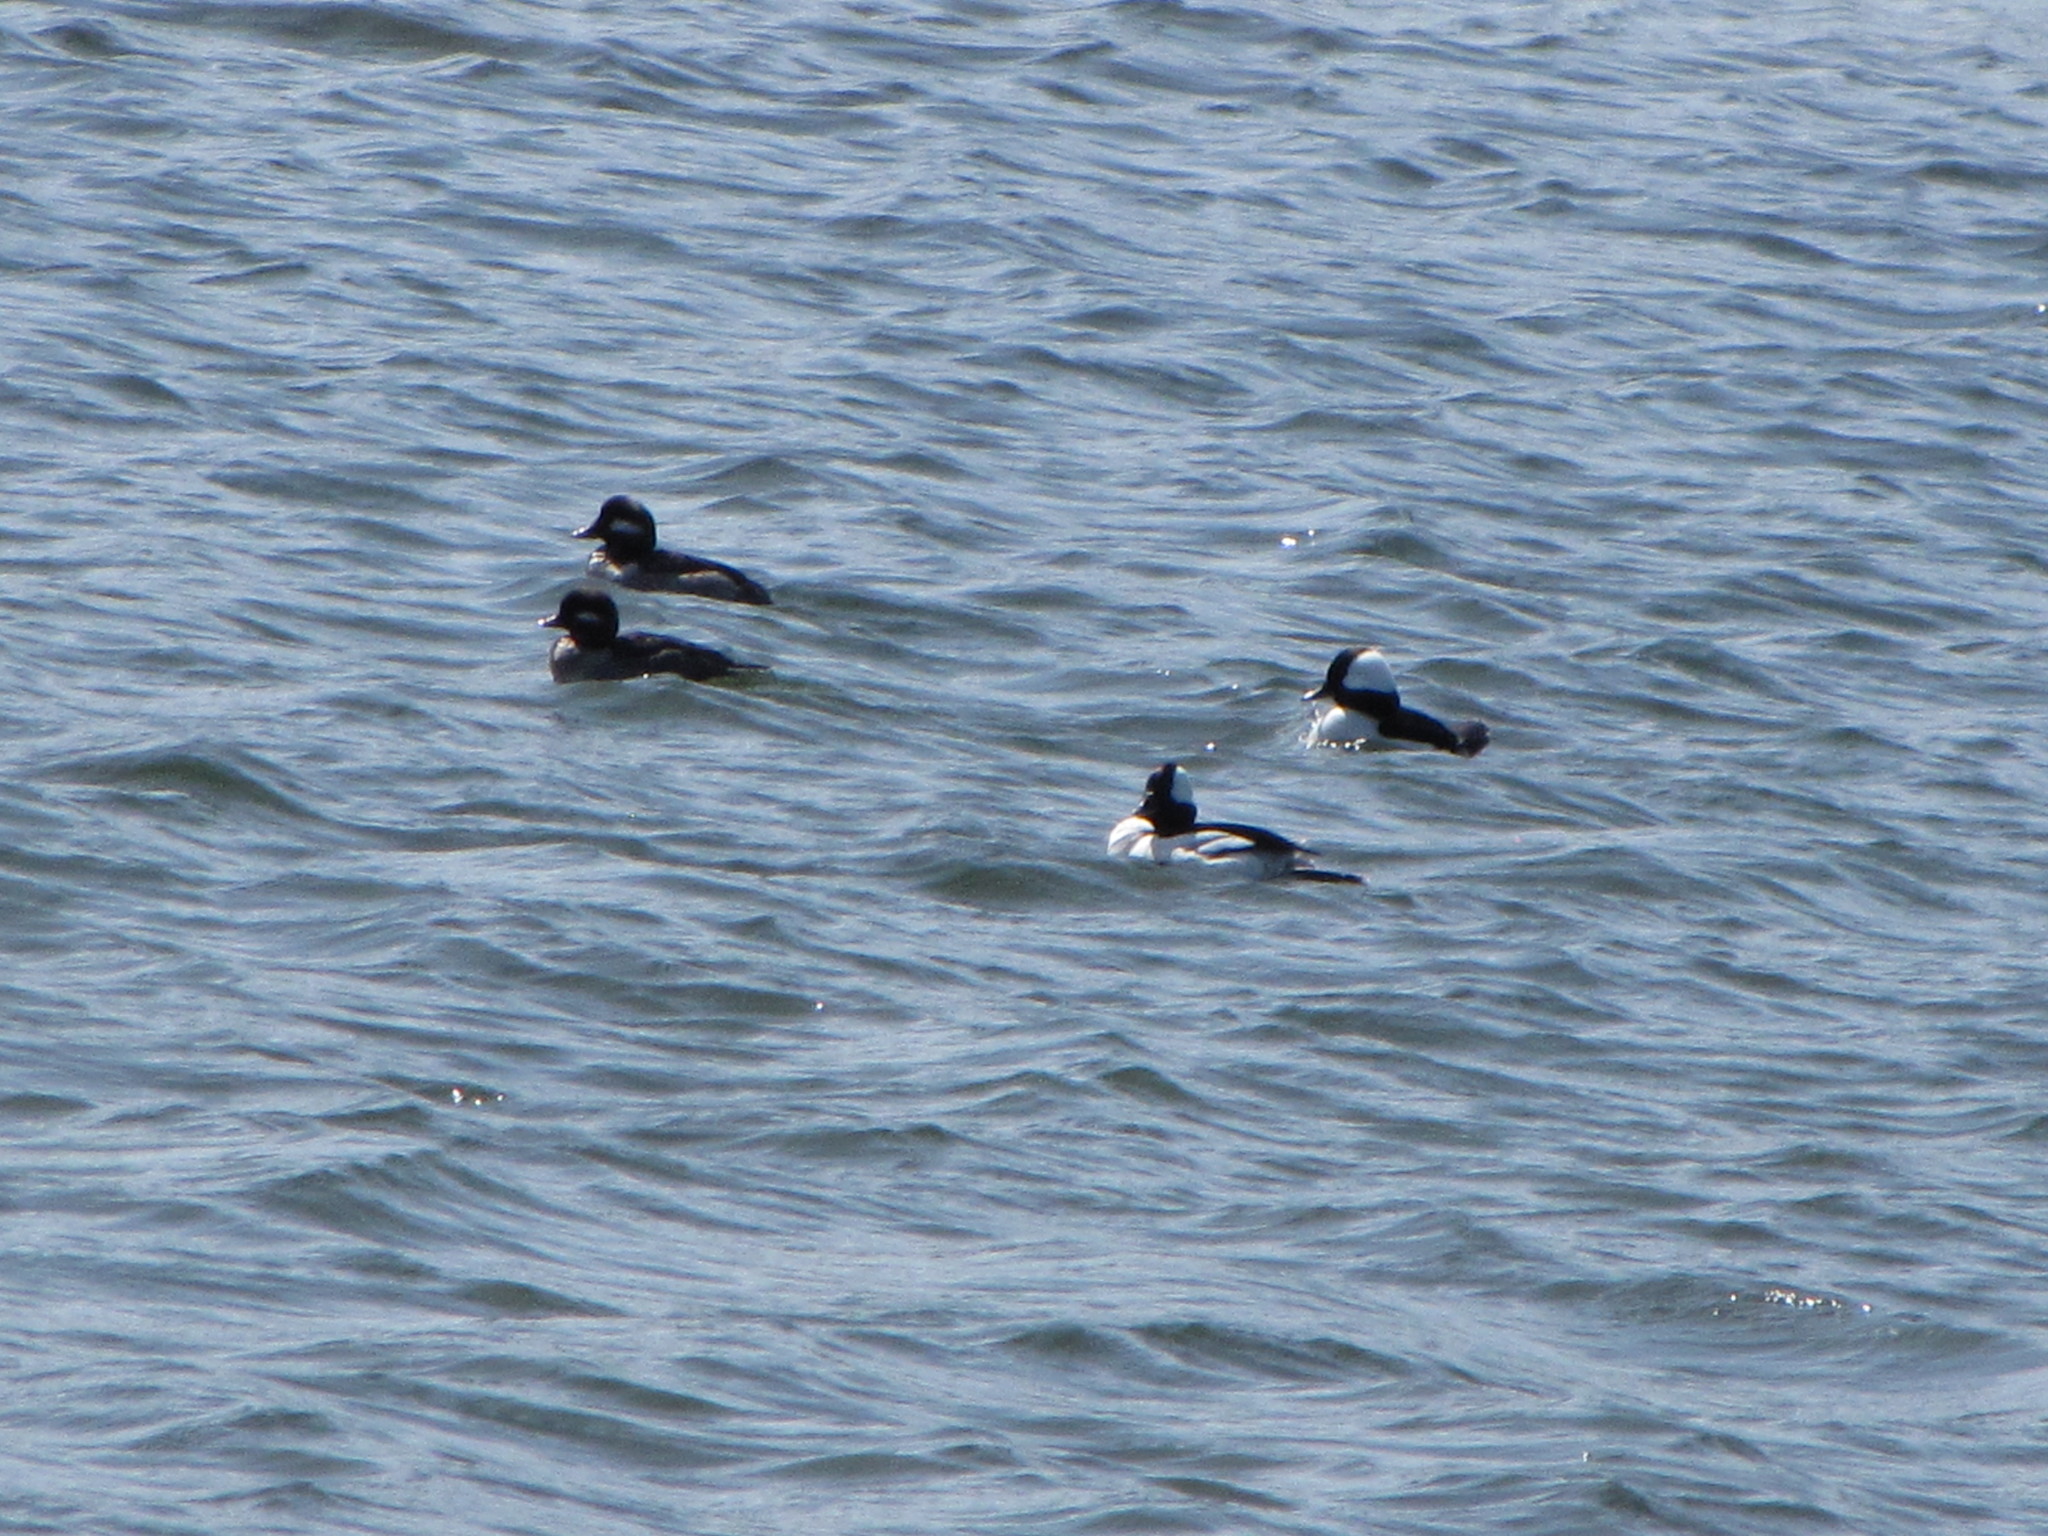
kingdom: Animalia
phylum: Chordata
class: Aves
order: Anseriformes
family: Anatidae
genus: Bucephala
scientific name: Bucephala albeola
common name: Bufflehead
